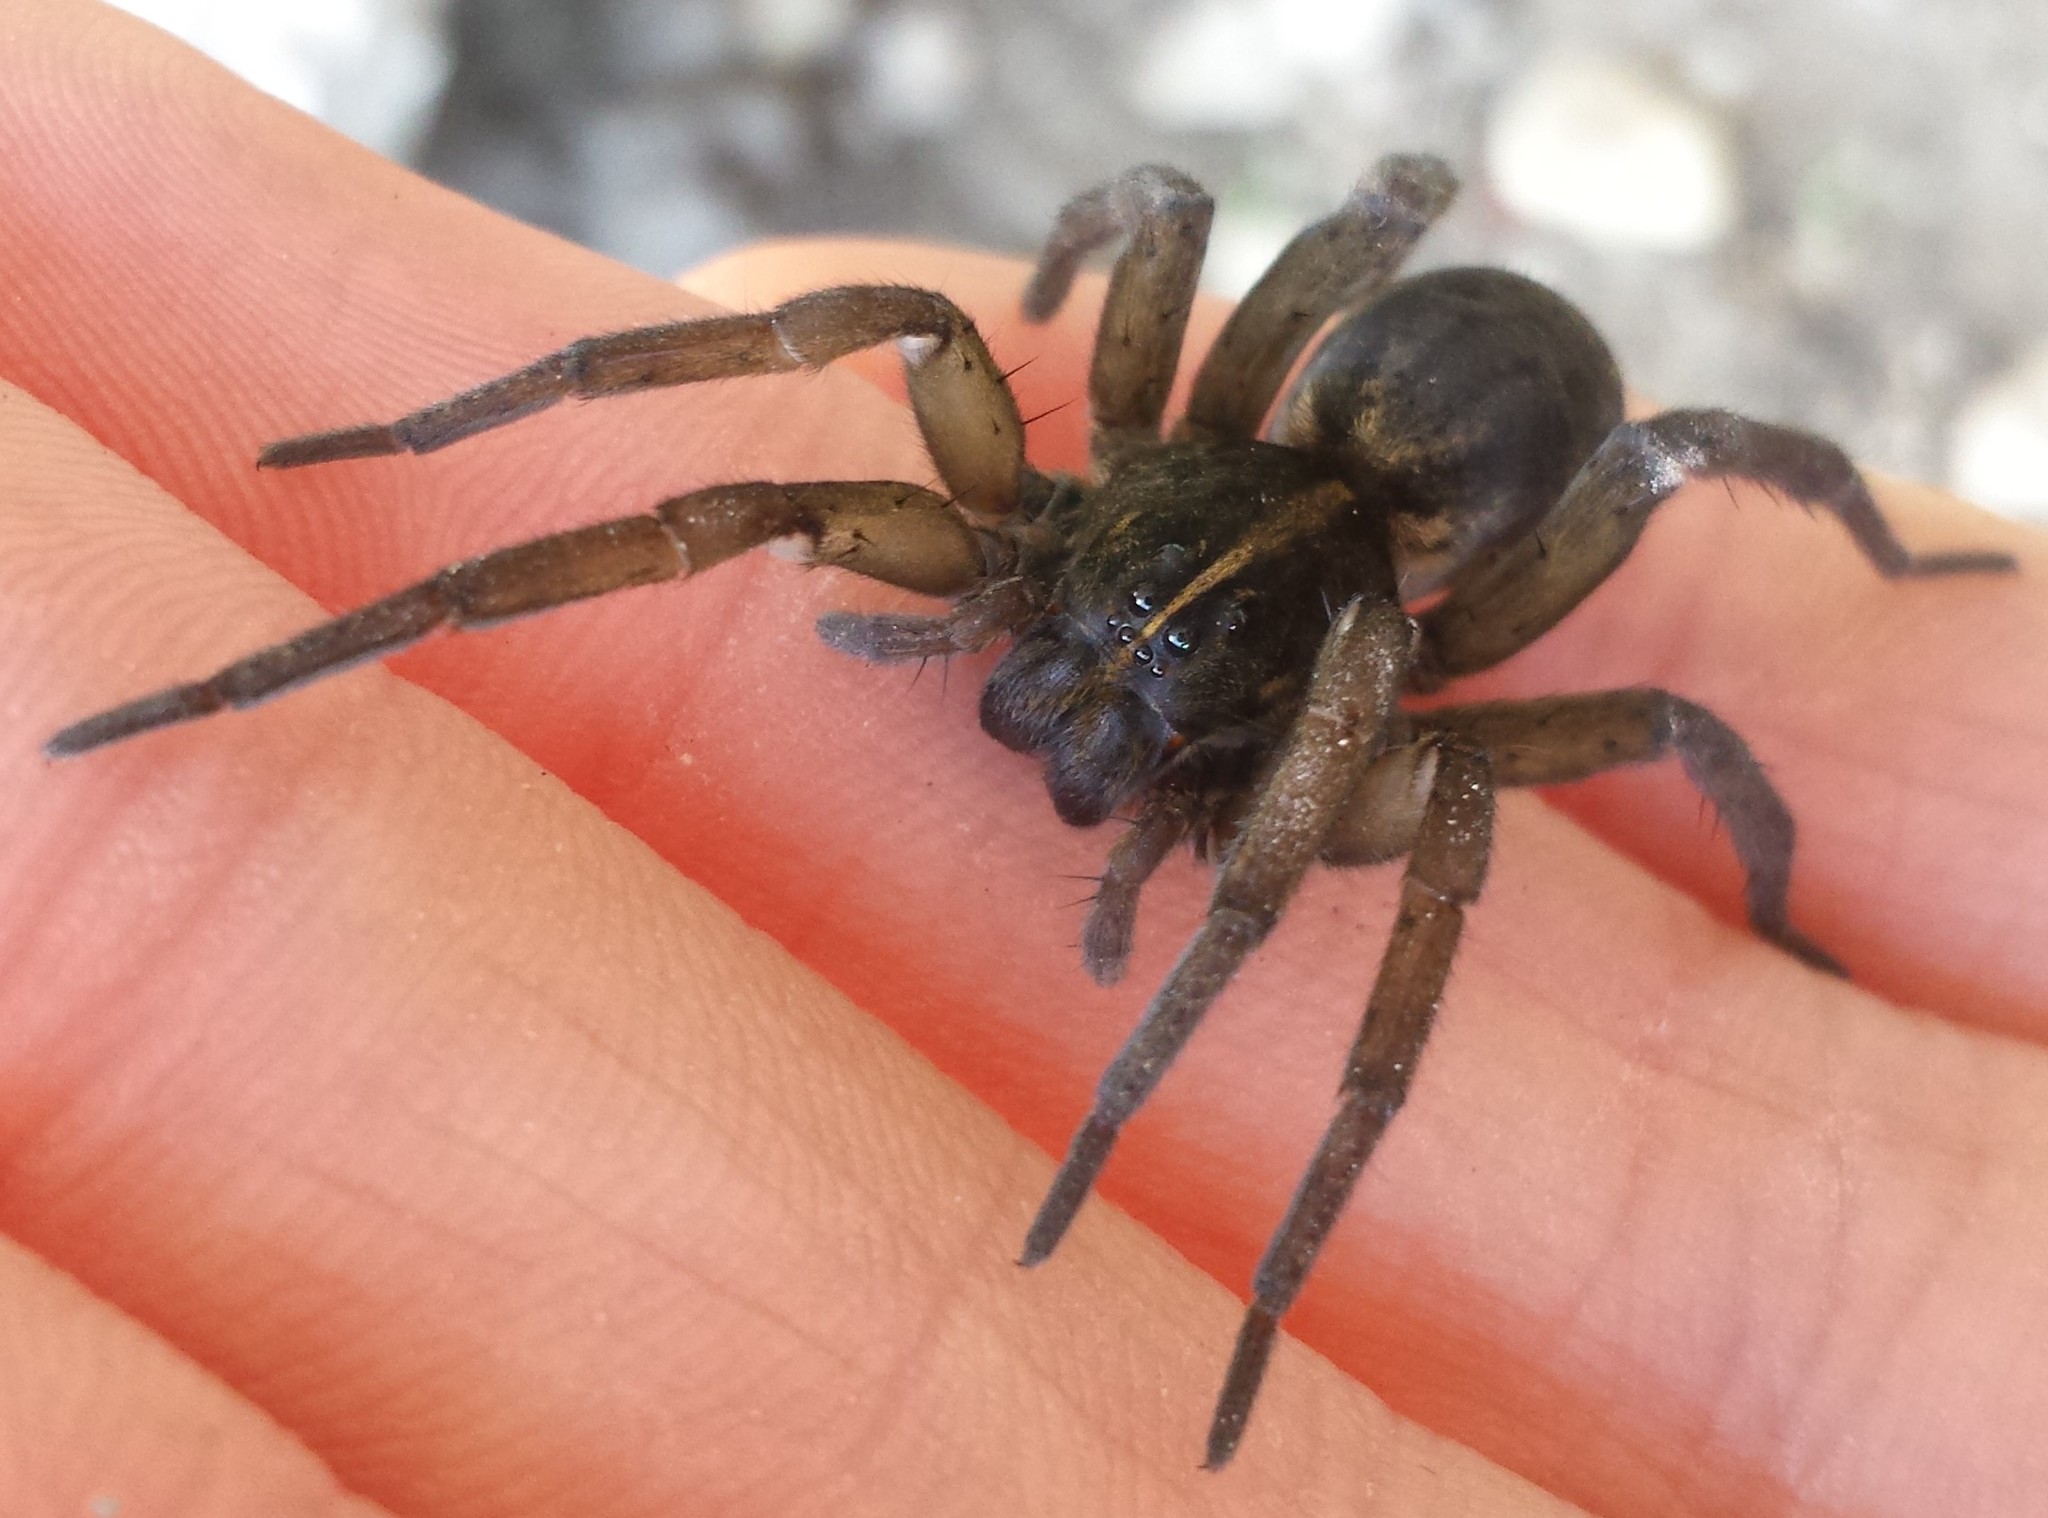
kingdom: Animalia
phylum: Arthropoda
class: Arachnida
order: Araneae
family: Lycosidae
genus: Tigrosa
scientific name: Tigrosa helluo
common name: Wetland giant wolf spider
